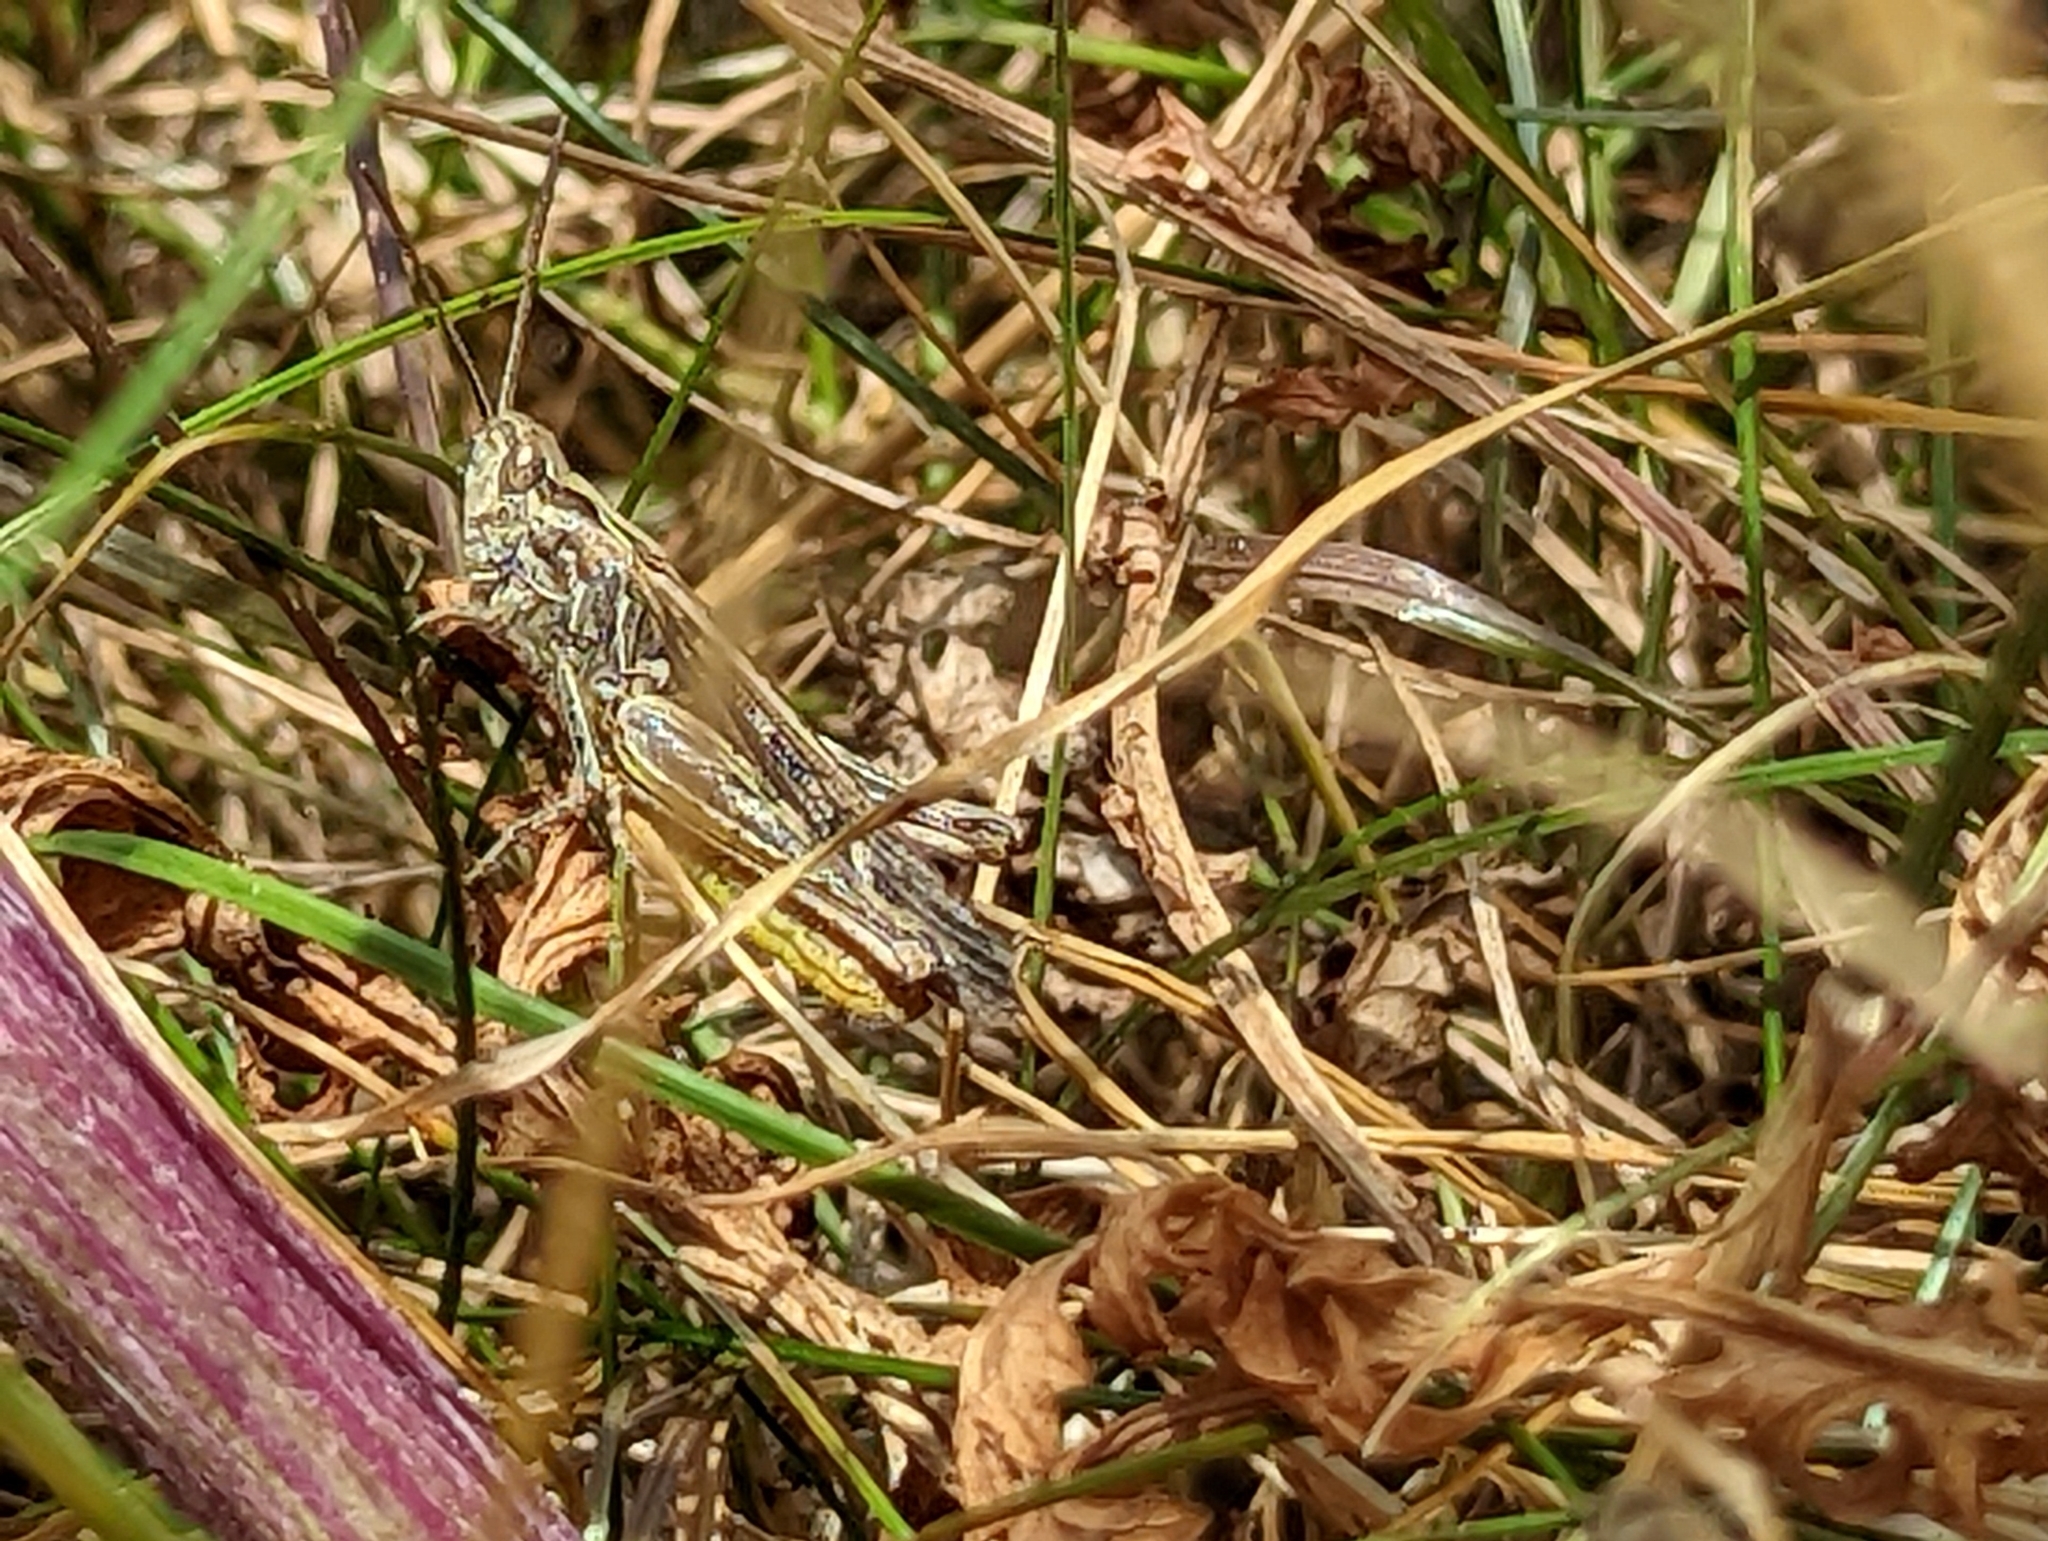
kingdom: Animalia
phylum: Arthropoda
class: Insecta
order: Orthoptera
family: Acrididae
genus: Chorthippus
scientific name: Chorthippus brunneus
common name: Field grasshopper
